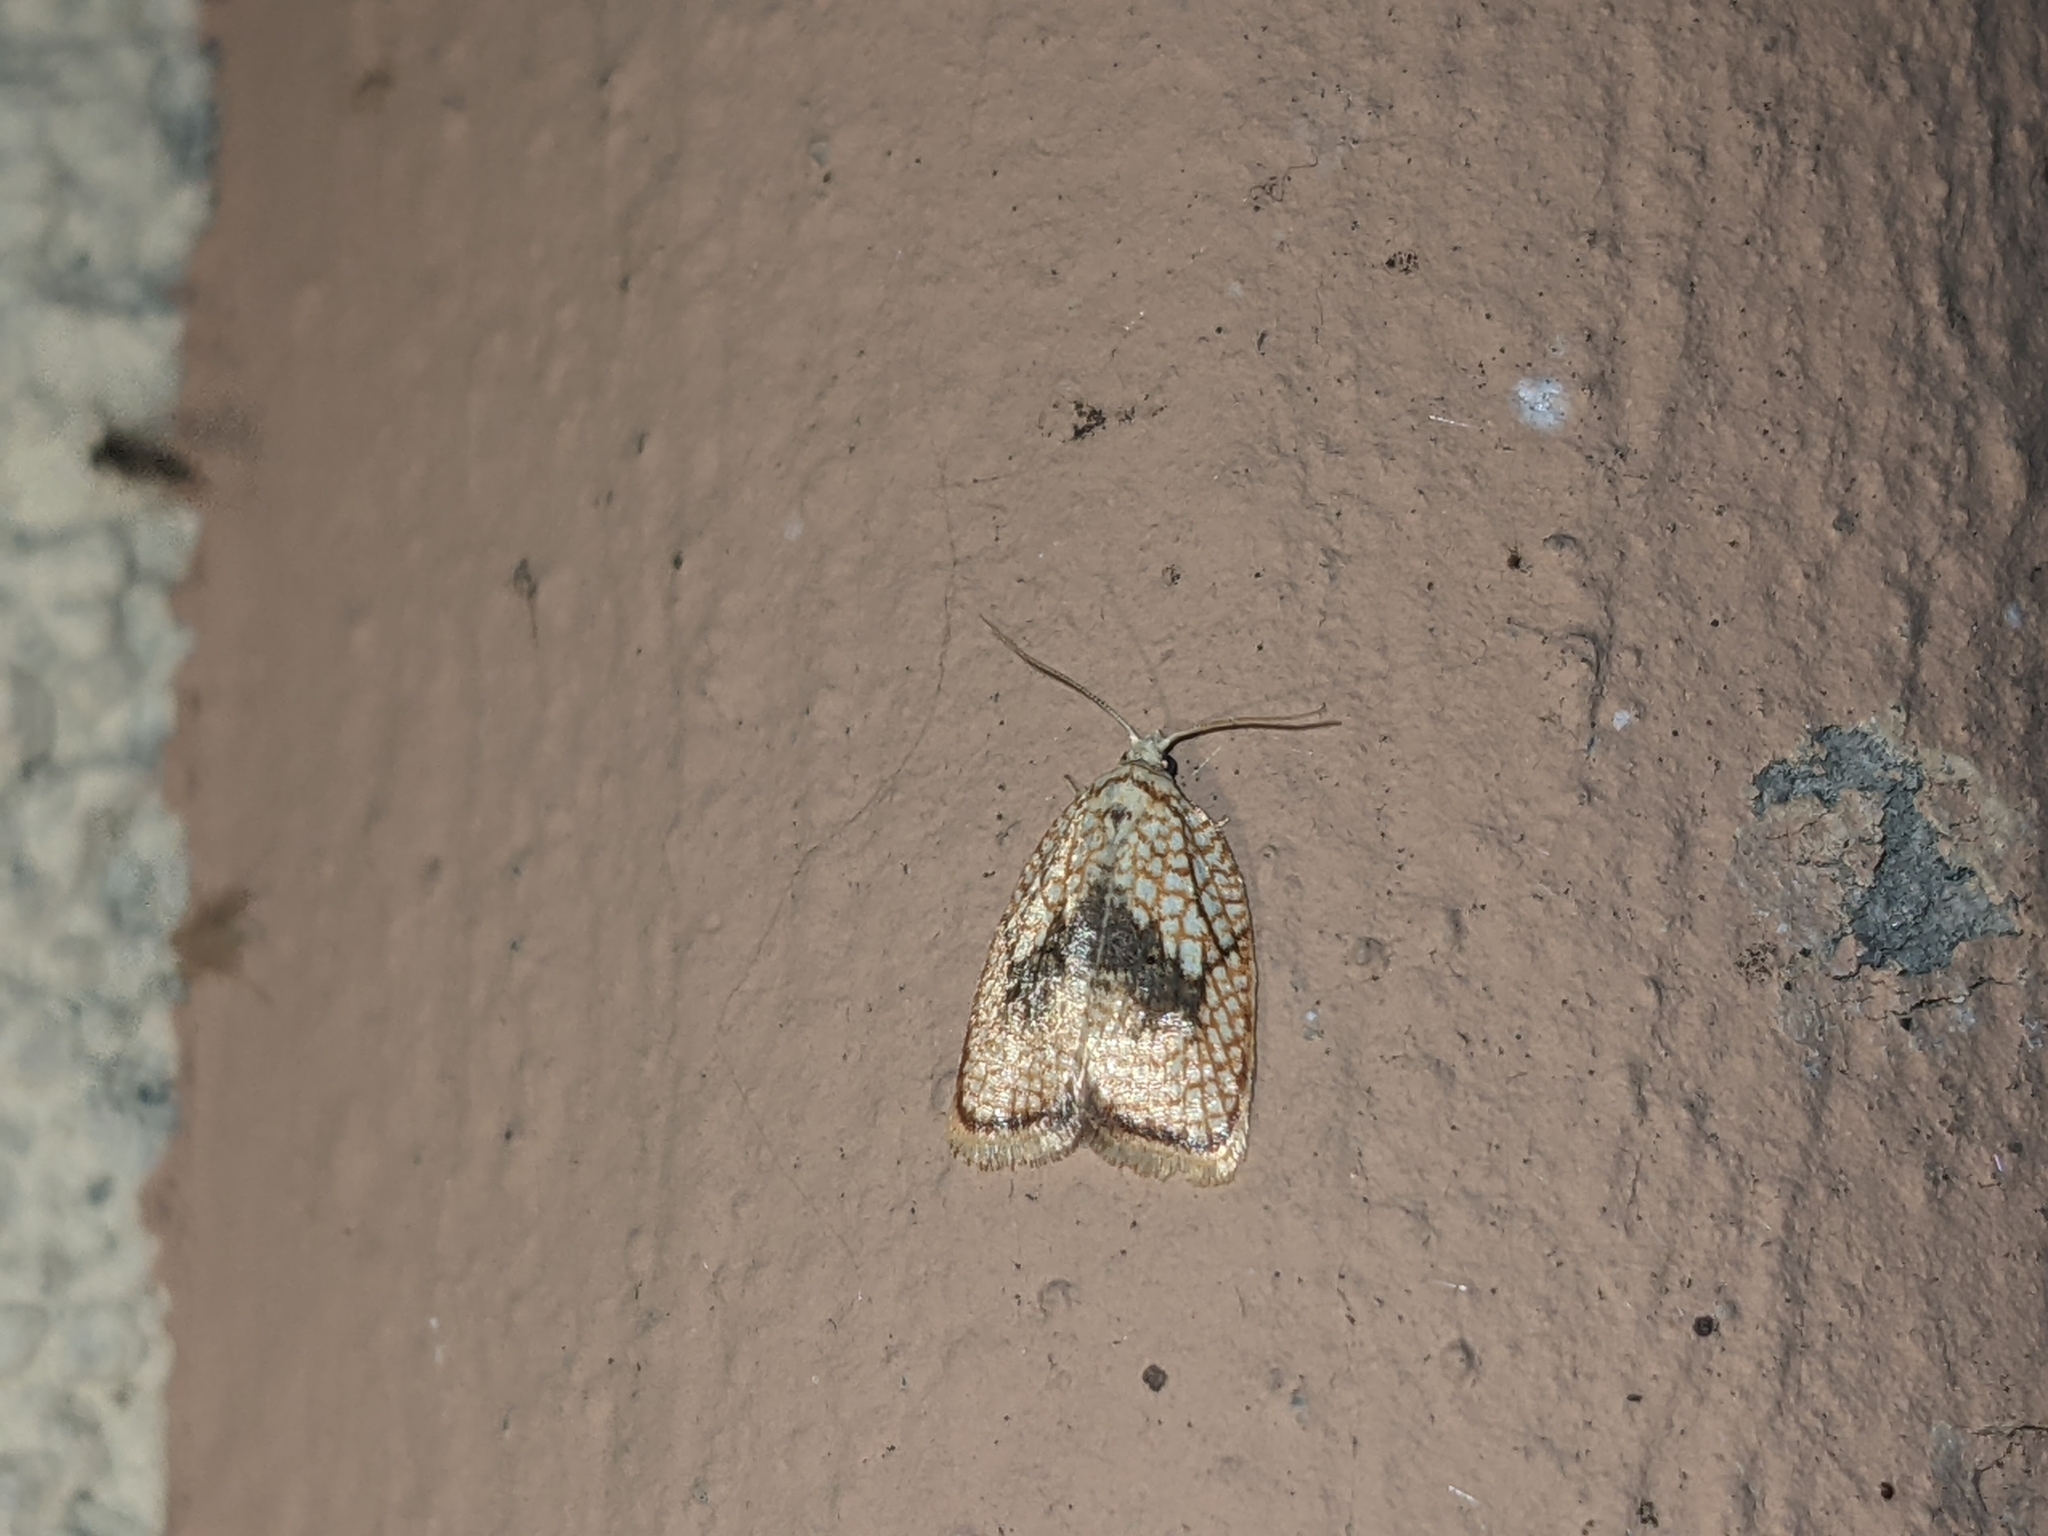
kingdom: Animalia
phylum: Arthropoda
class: Insecta
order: Lepidoptera
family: Tortricidae
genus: Acleris
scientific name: Acleris forsskaleana
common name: Maple button
